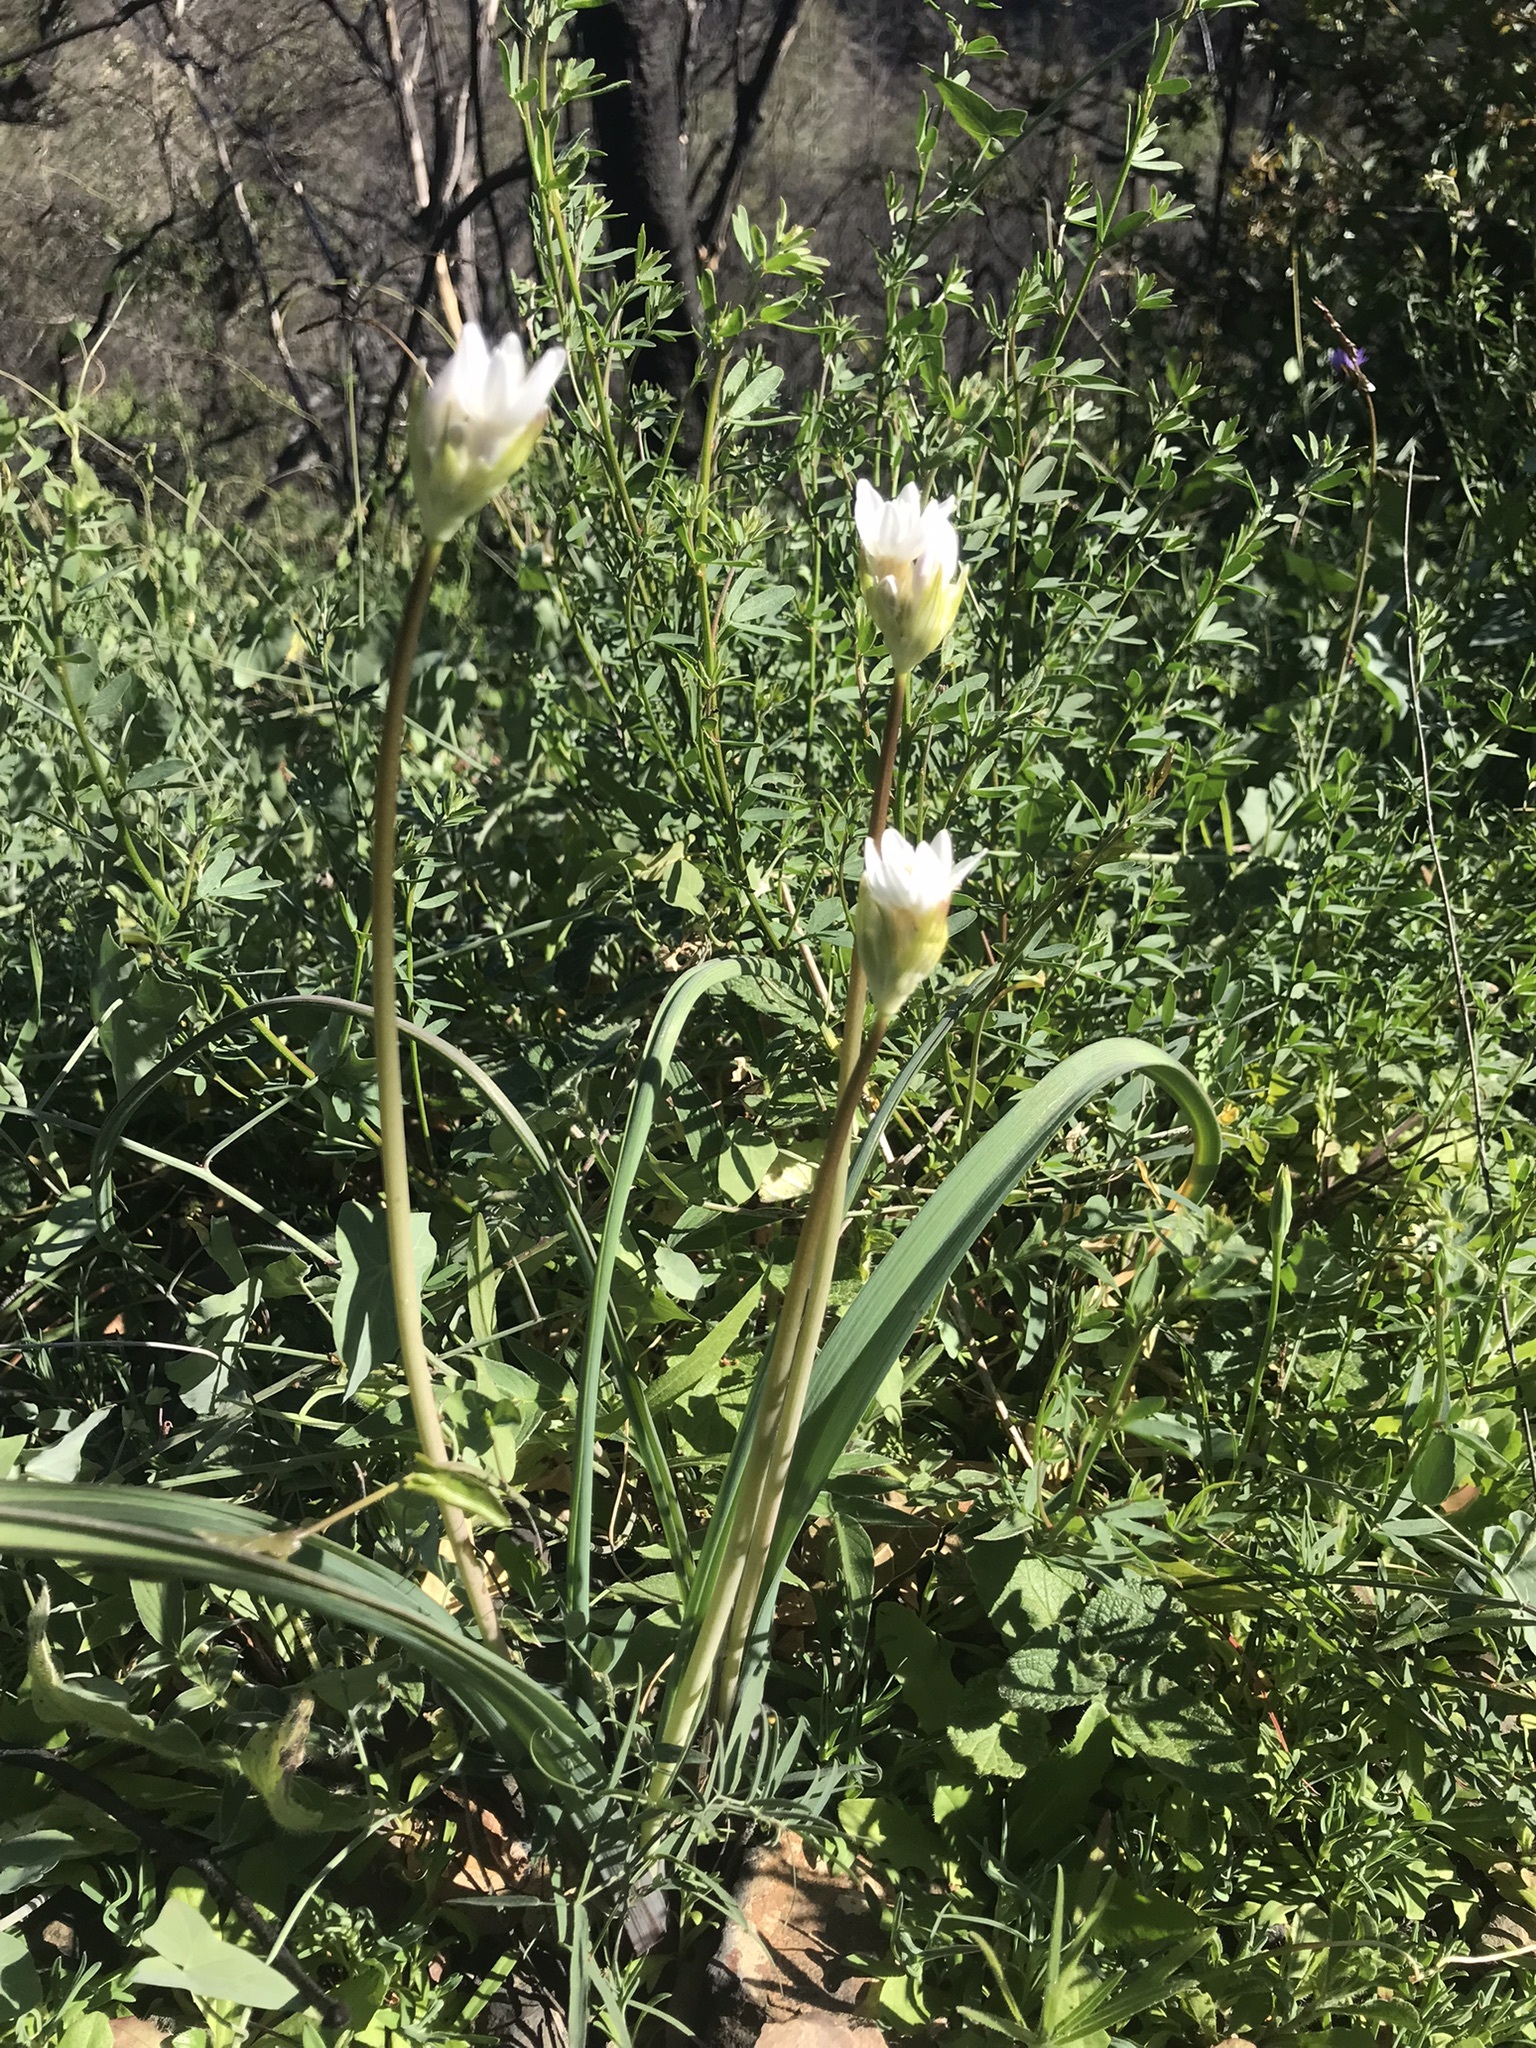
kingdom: Plantae
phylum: Tracheophyta
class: Liliopsida
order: Asparagales
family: Asparagaceae
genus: Dipterostemon
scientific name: Dipterostemon capitatus
